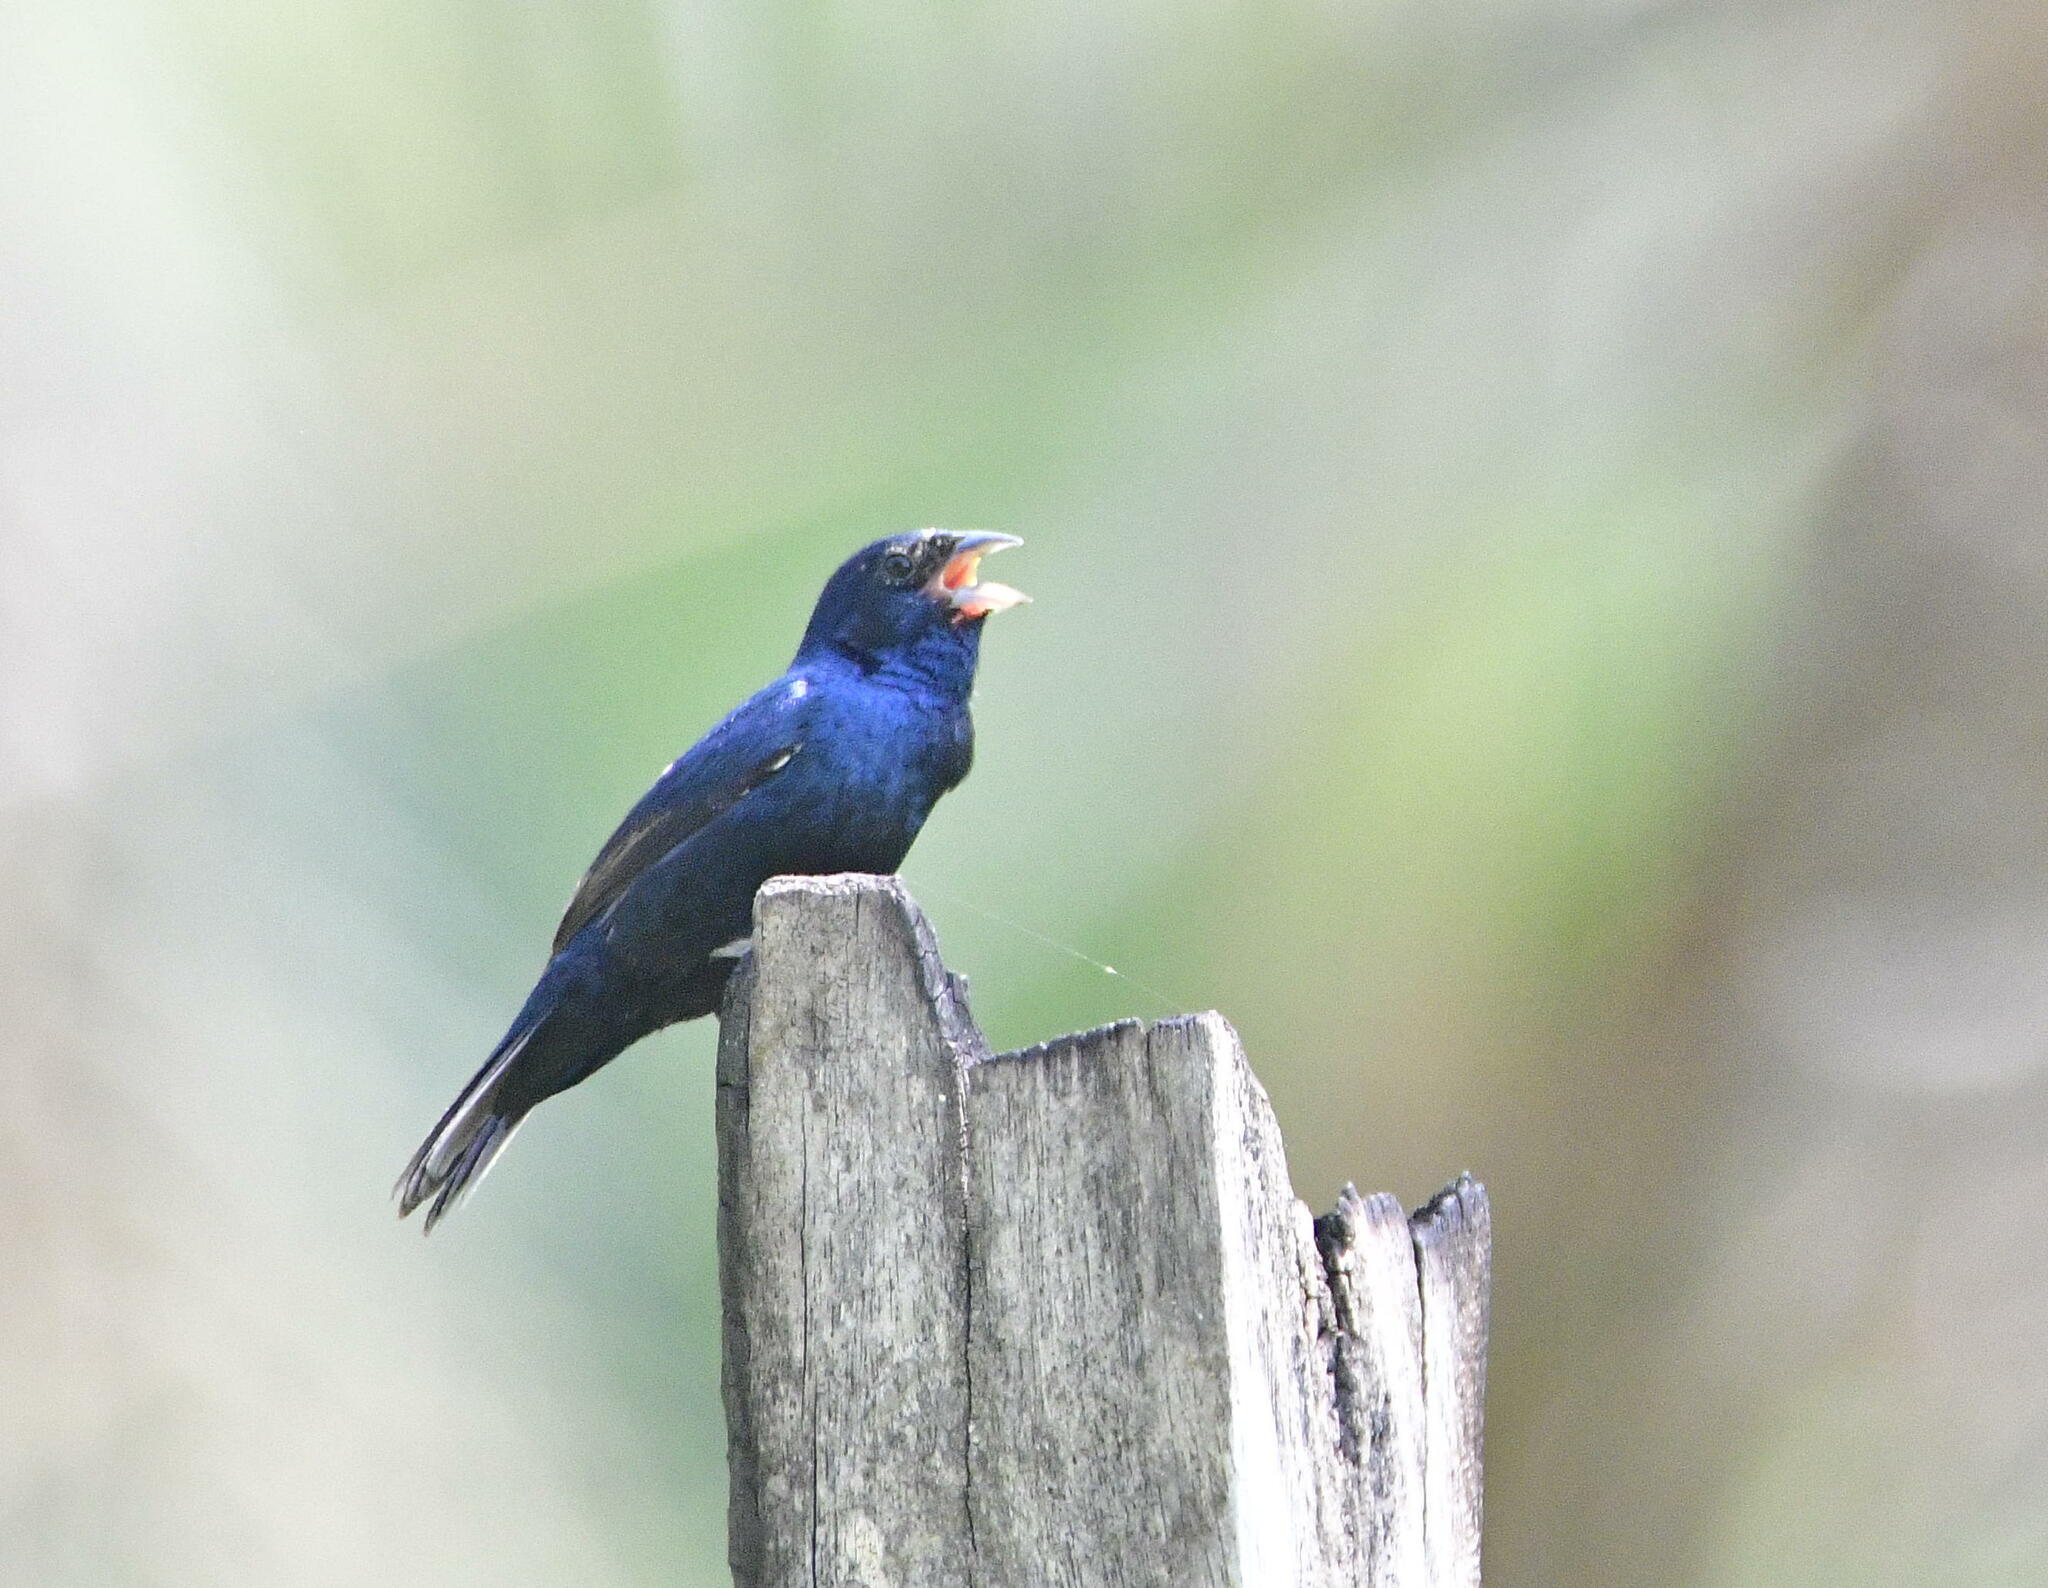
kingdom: Animalia
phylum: Chordata
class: Aves
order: Passeriformes
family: Thraupidae
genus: Volatinia
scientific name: Volatinia jacarina
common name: Blue-black grassquit
